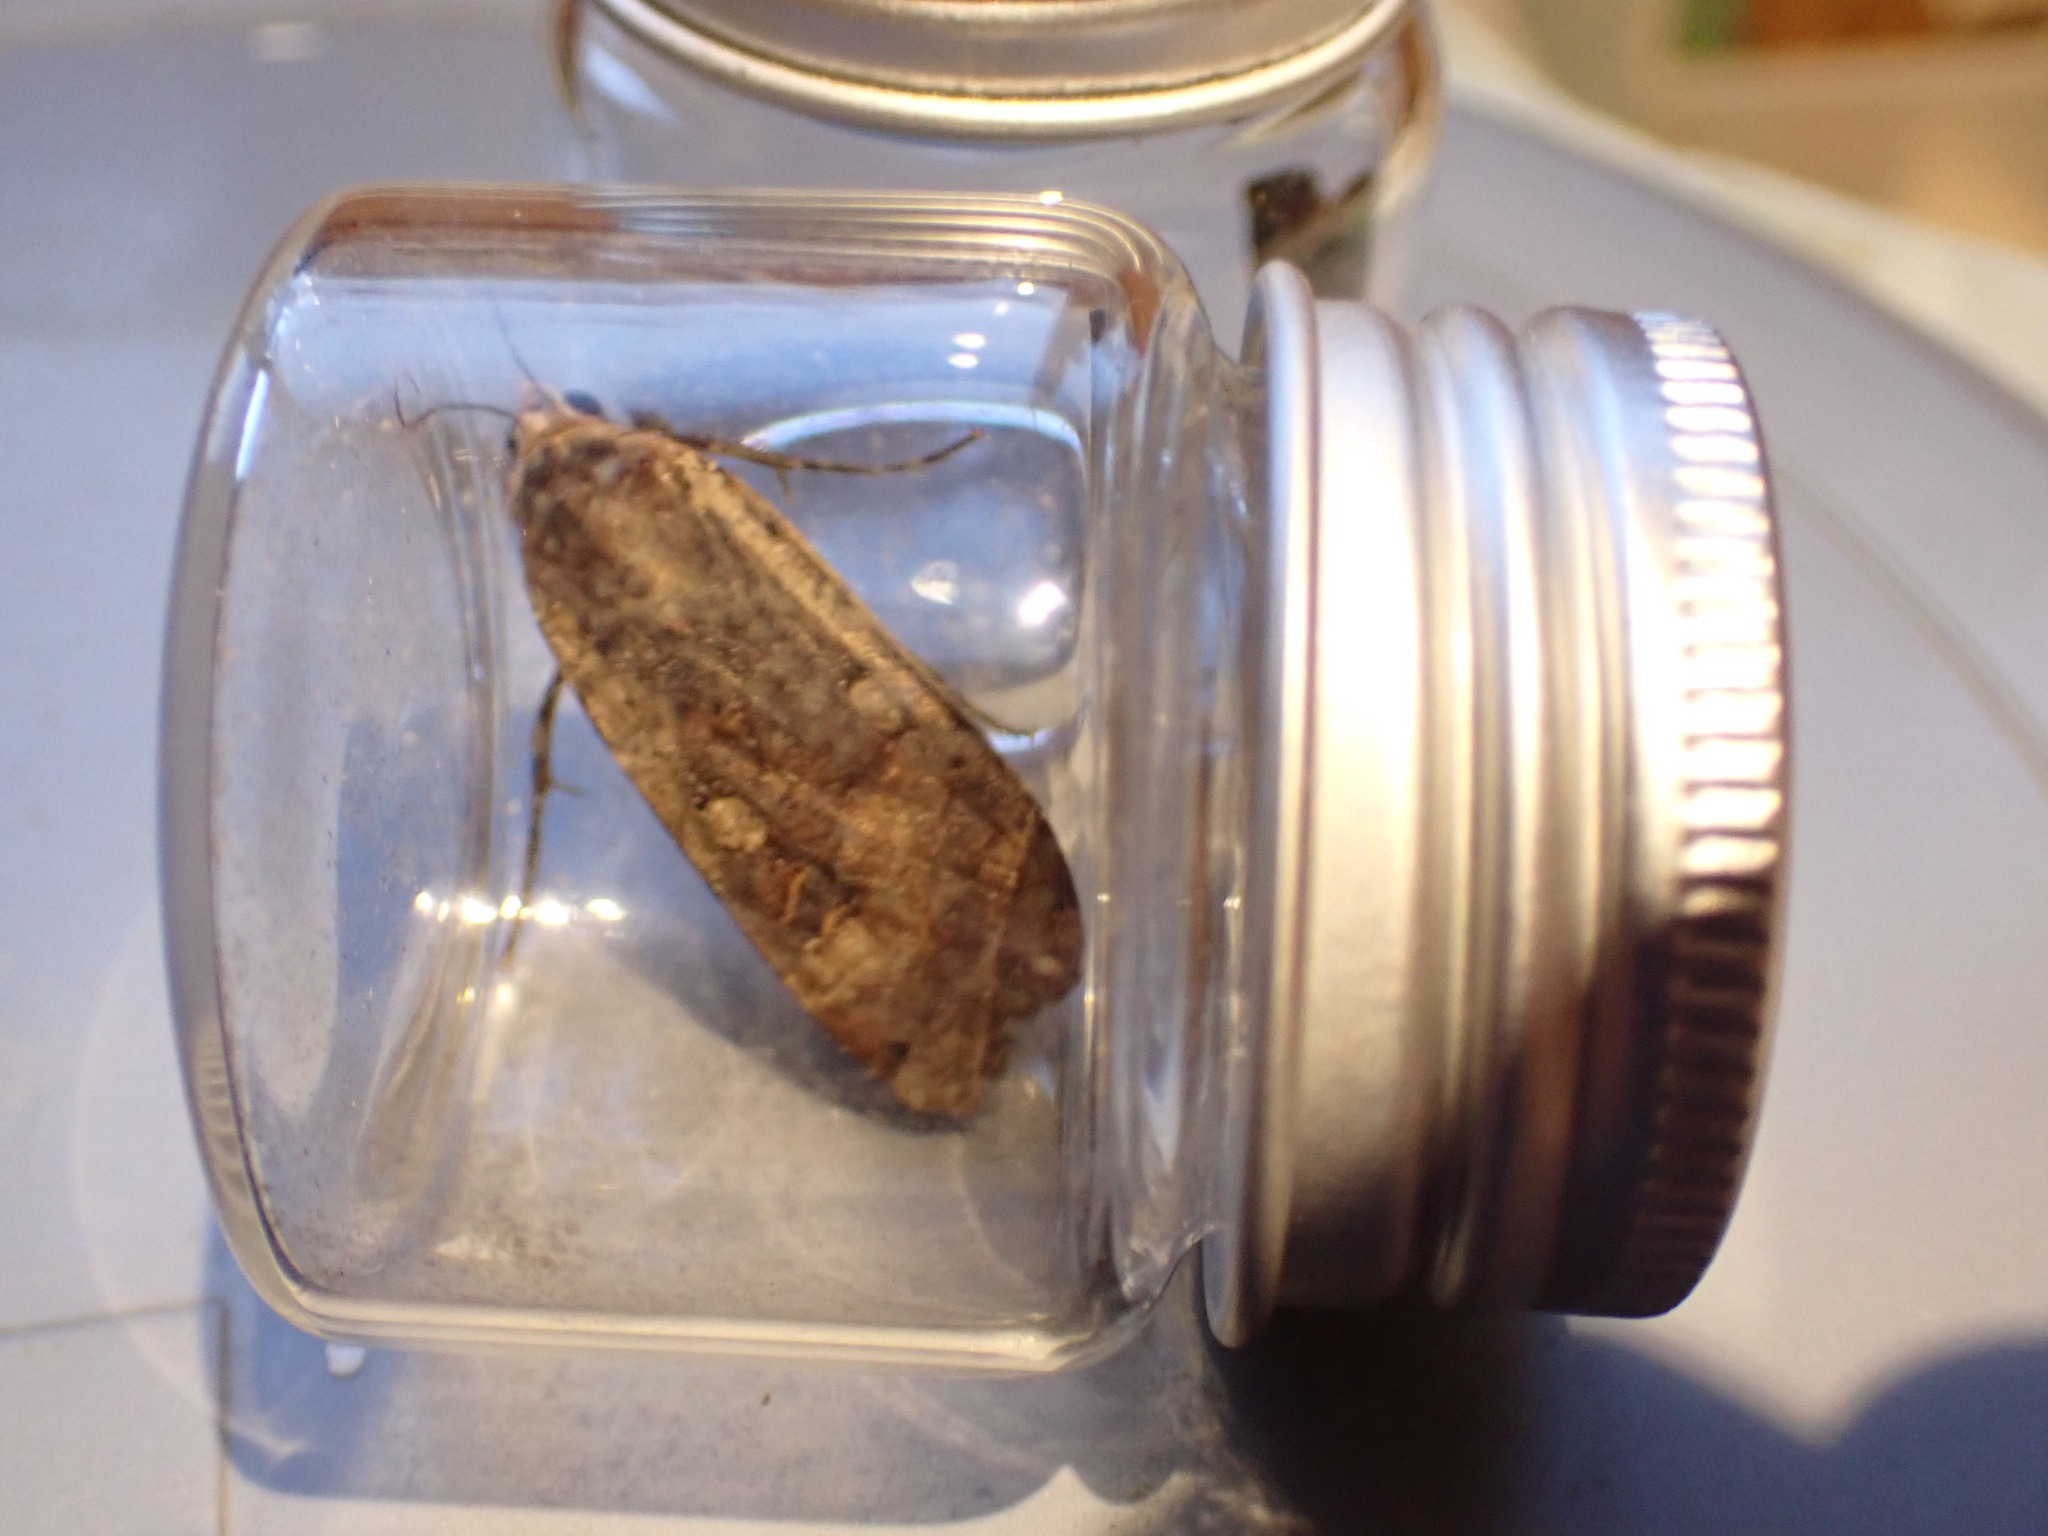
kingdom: Animalia
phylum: Arthropoda
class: Insecta
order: Lepidoptera
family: Noctuidae
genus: Noctua
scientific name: Noctua pronuba
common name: Large yellow underwing
